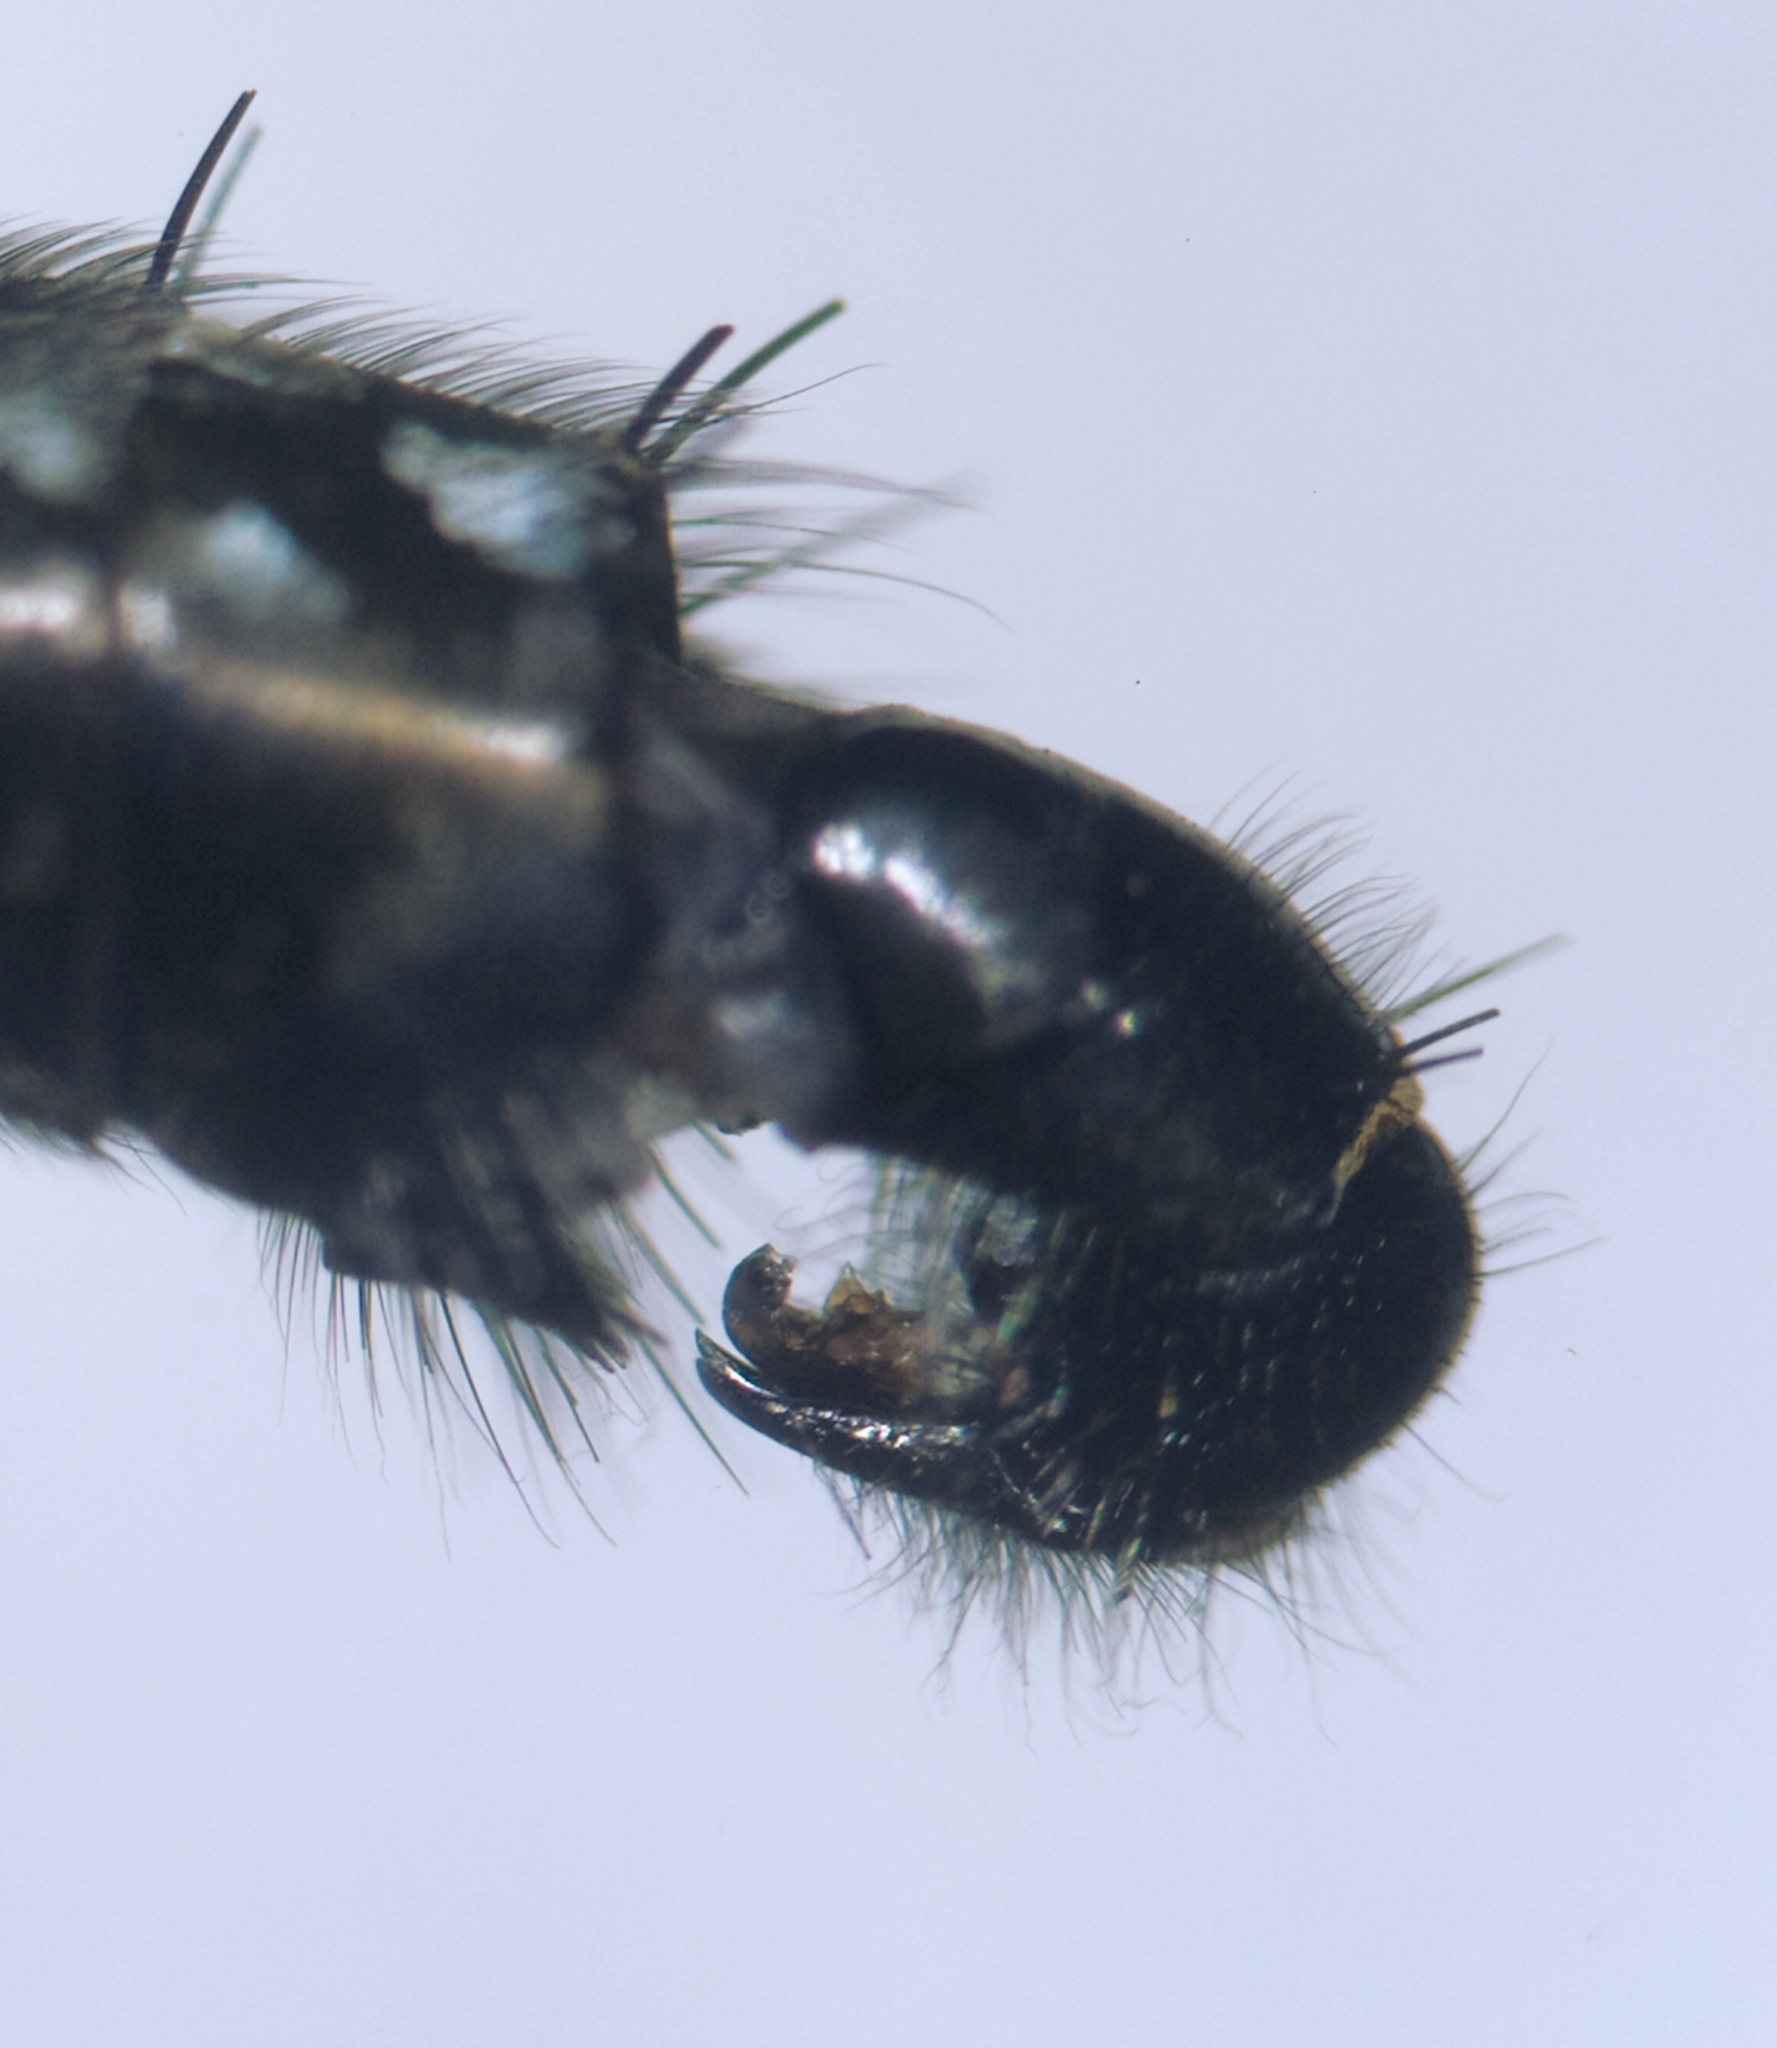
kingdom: Animalia
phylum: Arthropoda
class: Insecta
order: Diptera
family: Sarcophagidae
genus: Sarcophaga
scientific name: Sarcophaga melanura
